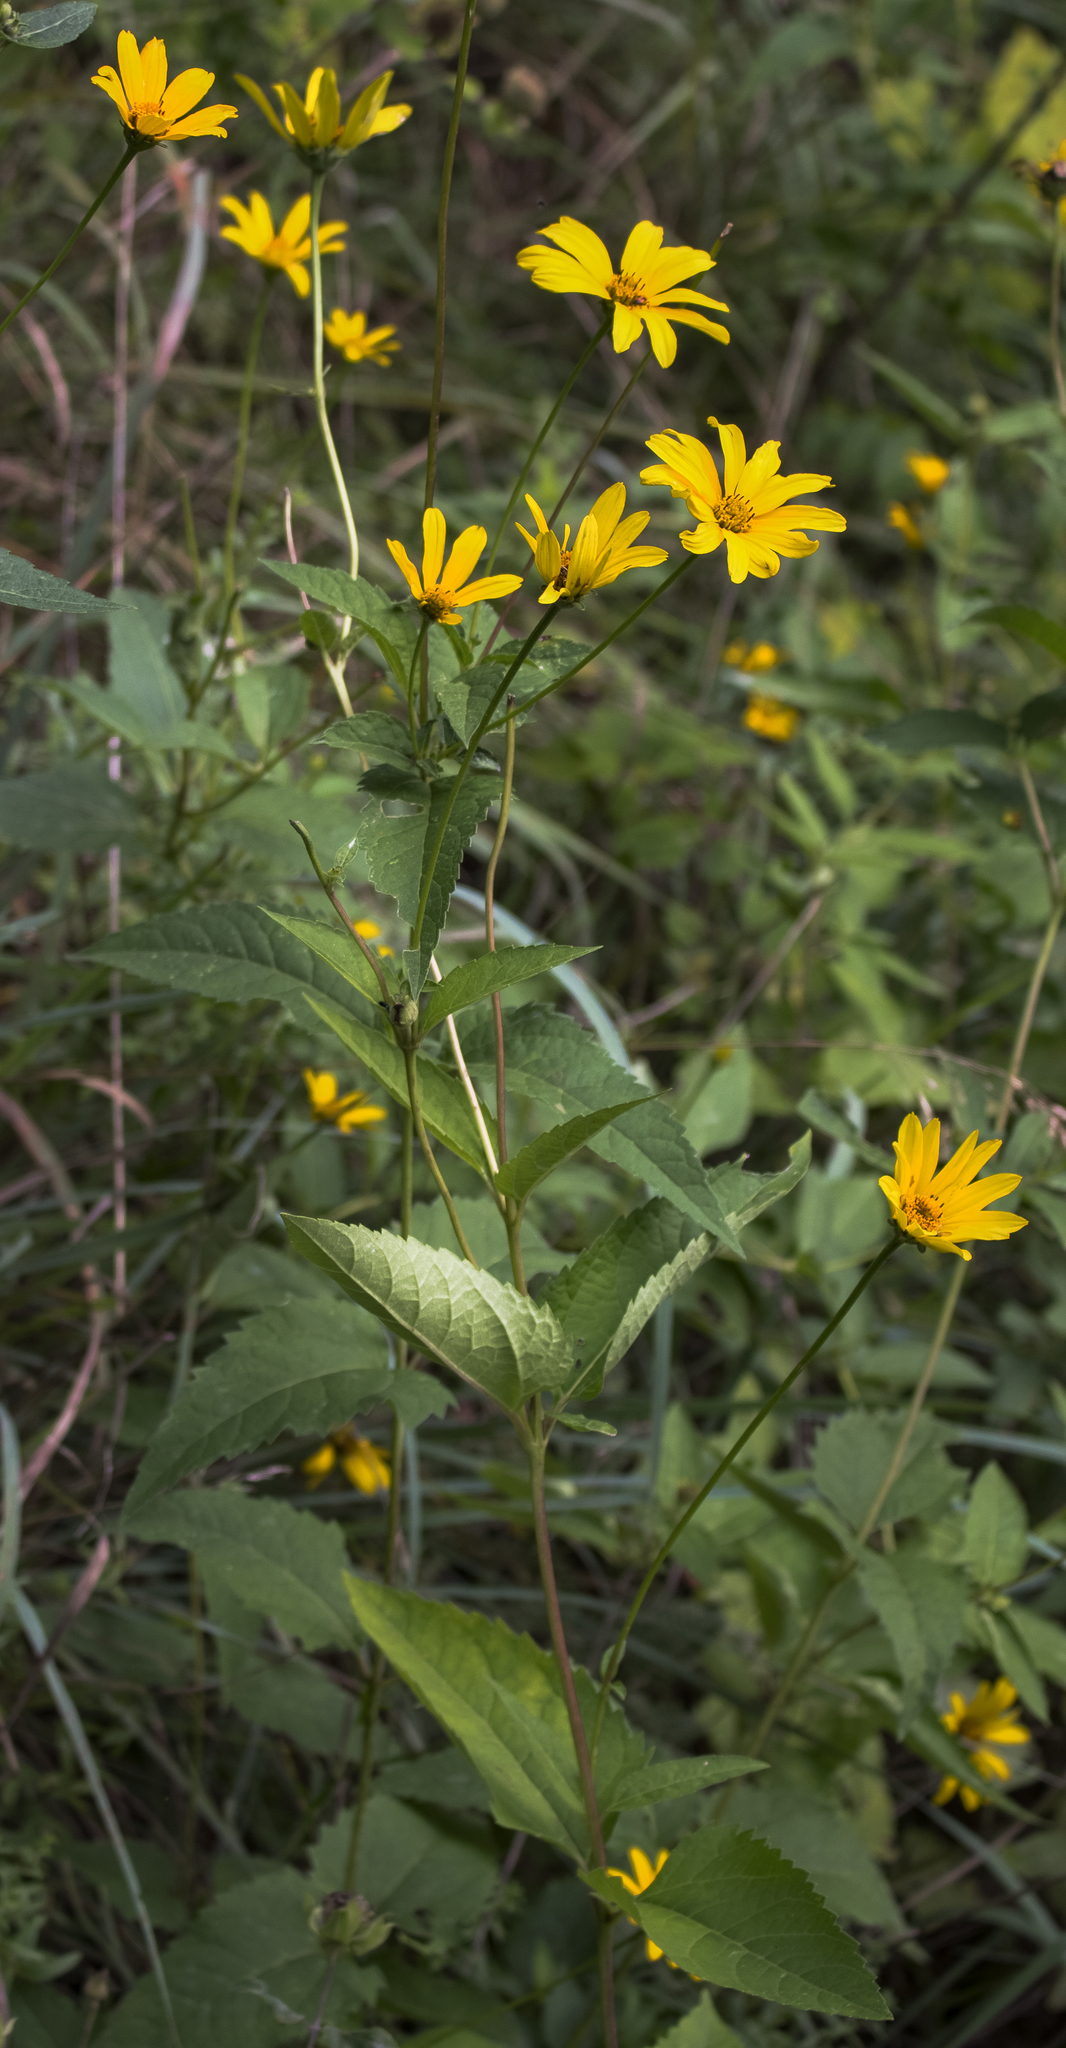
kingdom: Plantae
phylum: Tracheophyta
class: Magnoliopsida
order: Asterales
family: Asteraceae
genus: Heliopsis
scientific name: Heliopsis helianthoides
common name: False sunflower
